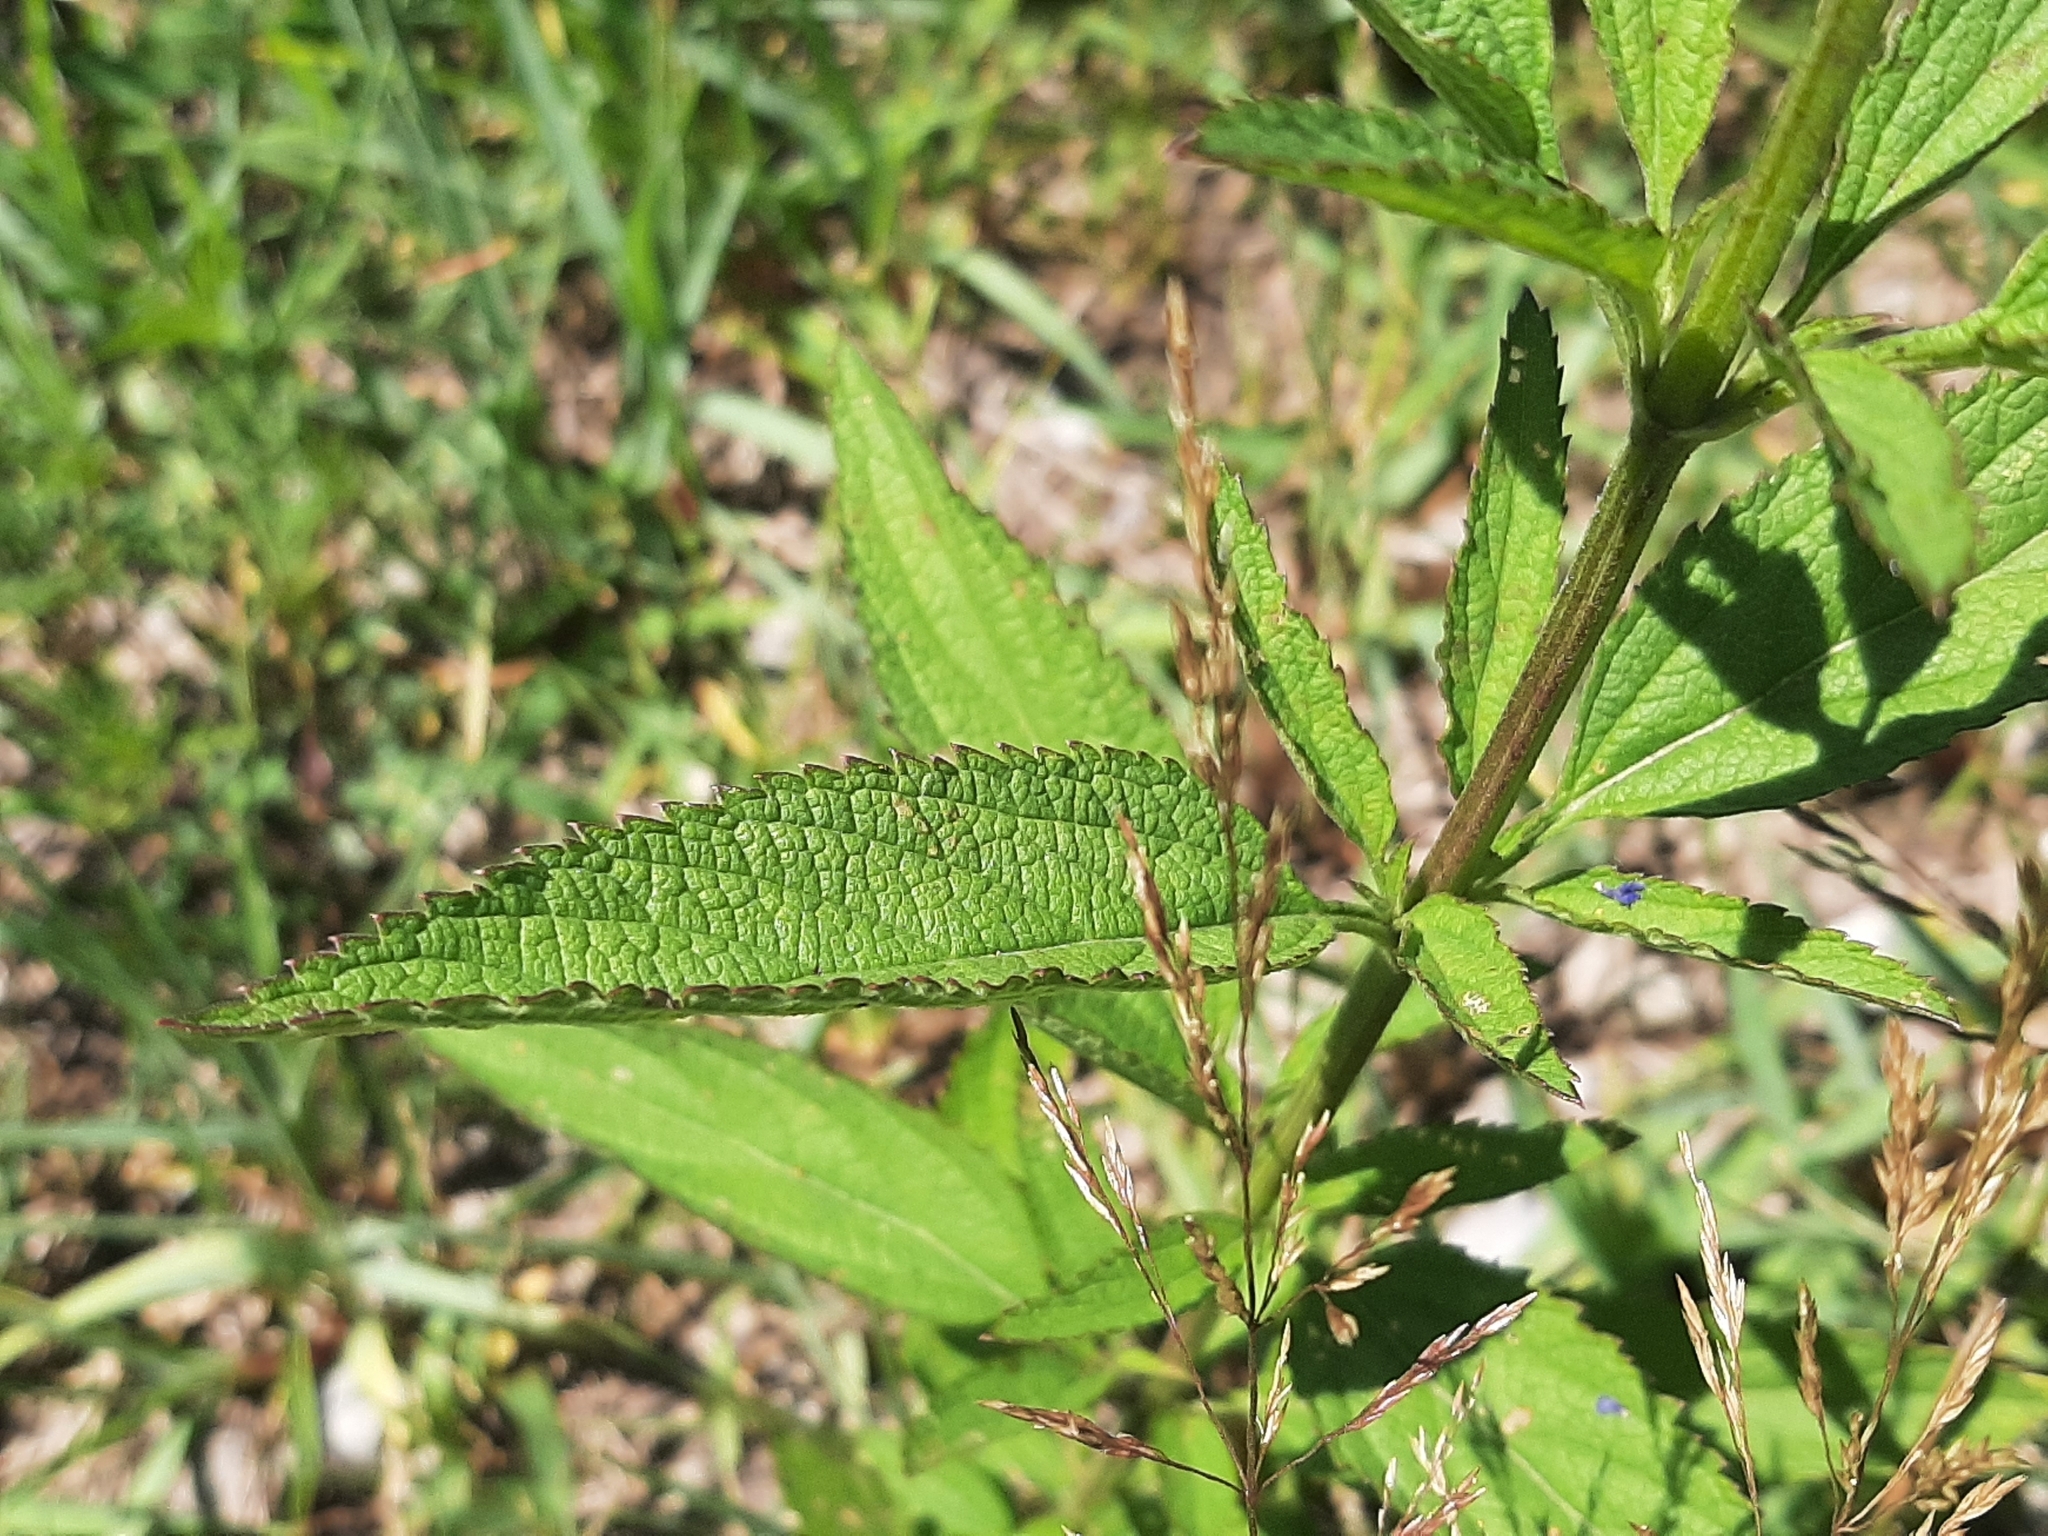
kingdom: Plantae
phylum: Tracheophyta
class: Magnoliopsida
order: Lamiales
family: Verbenaceae
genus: Verbena
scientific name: Verbena hastata
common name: American blue vervain
